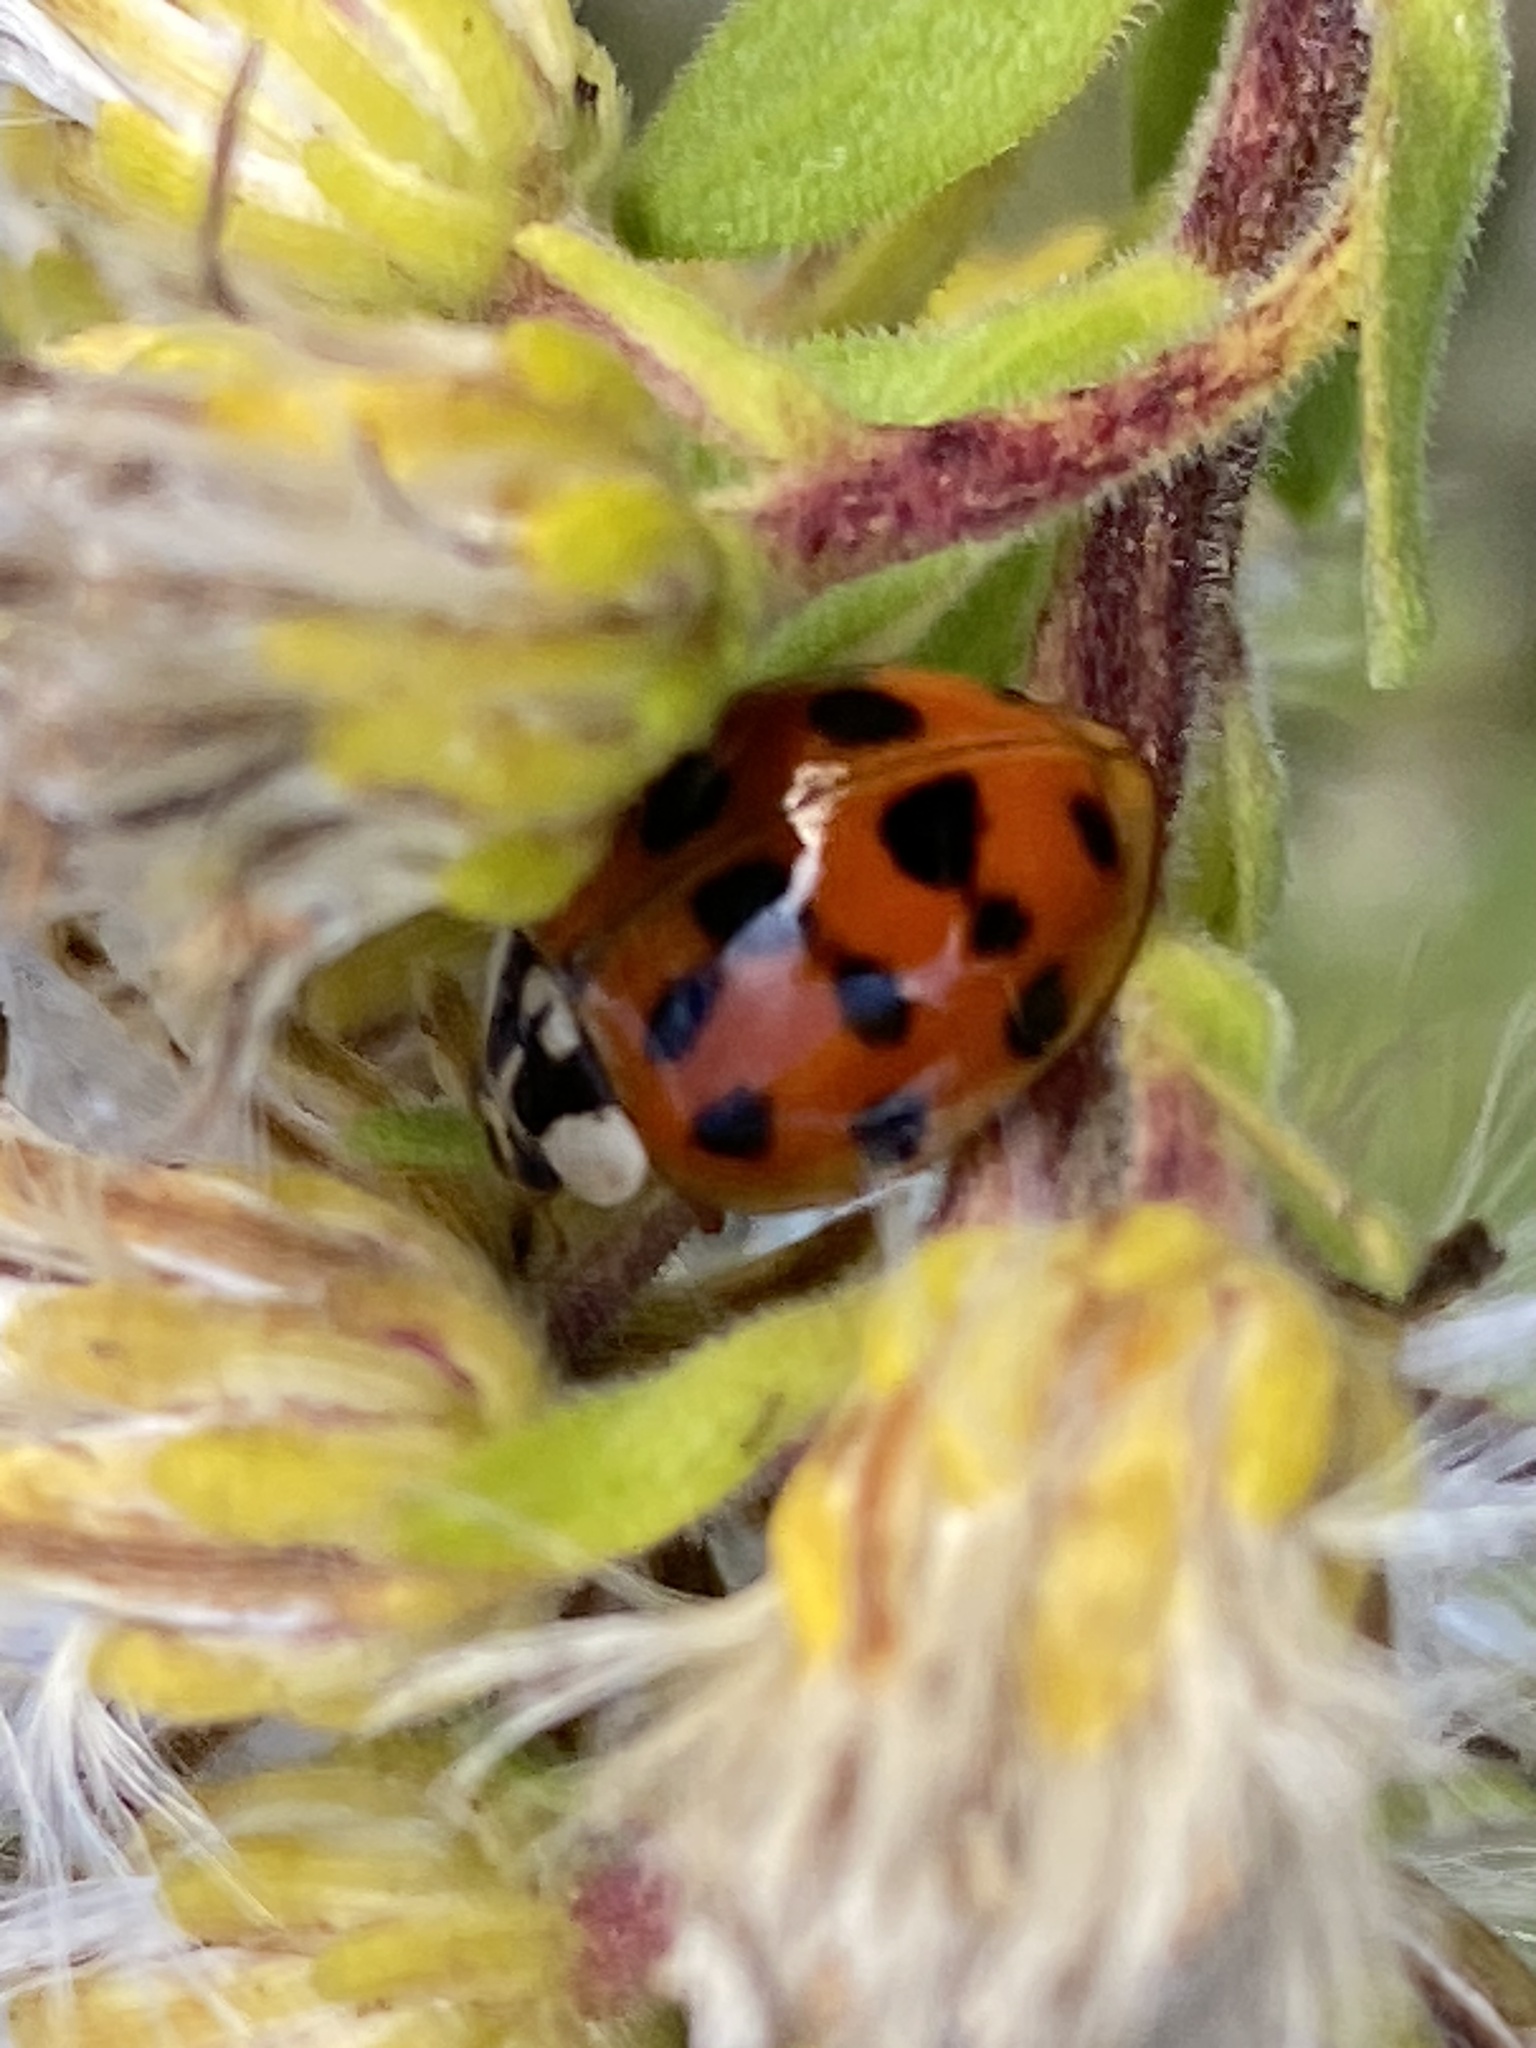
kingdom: Animalia
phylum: Arthropoda
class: Insecta
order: Coleoptera
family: Coccinellidae
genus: Harmonia
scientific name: Harmonia axyridis
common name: Harlequin ladybird
